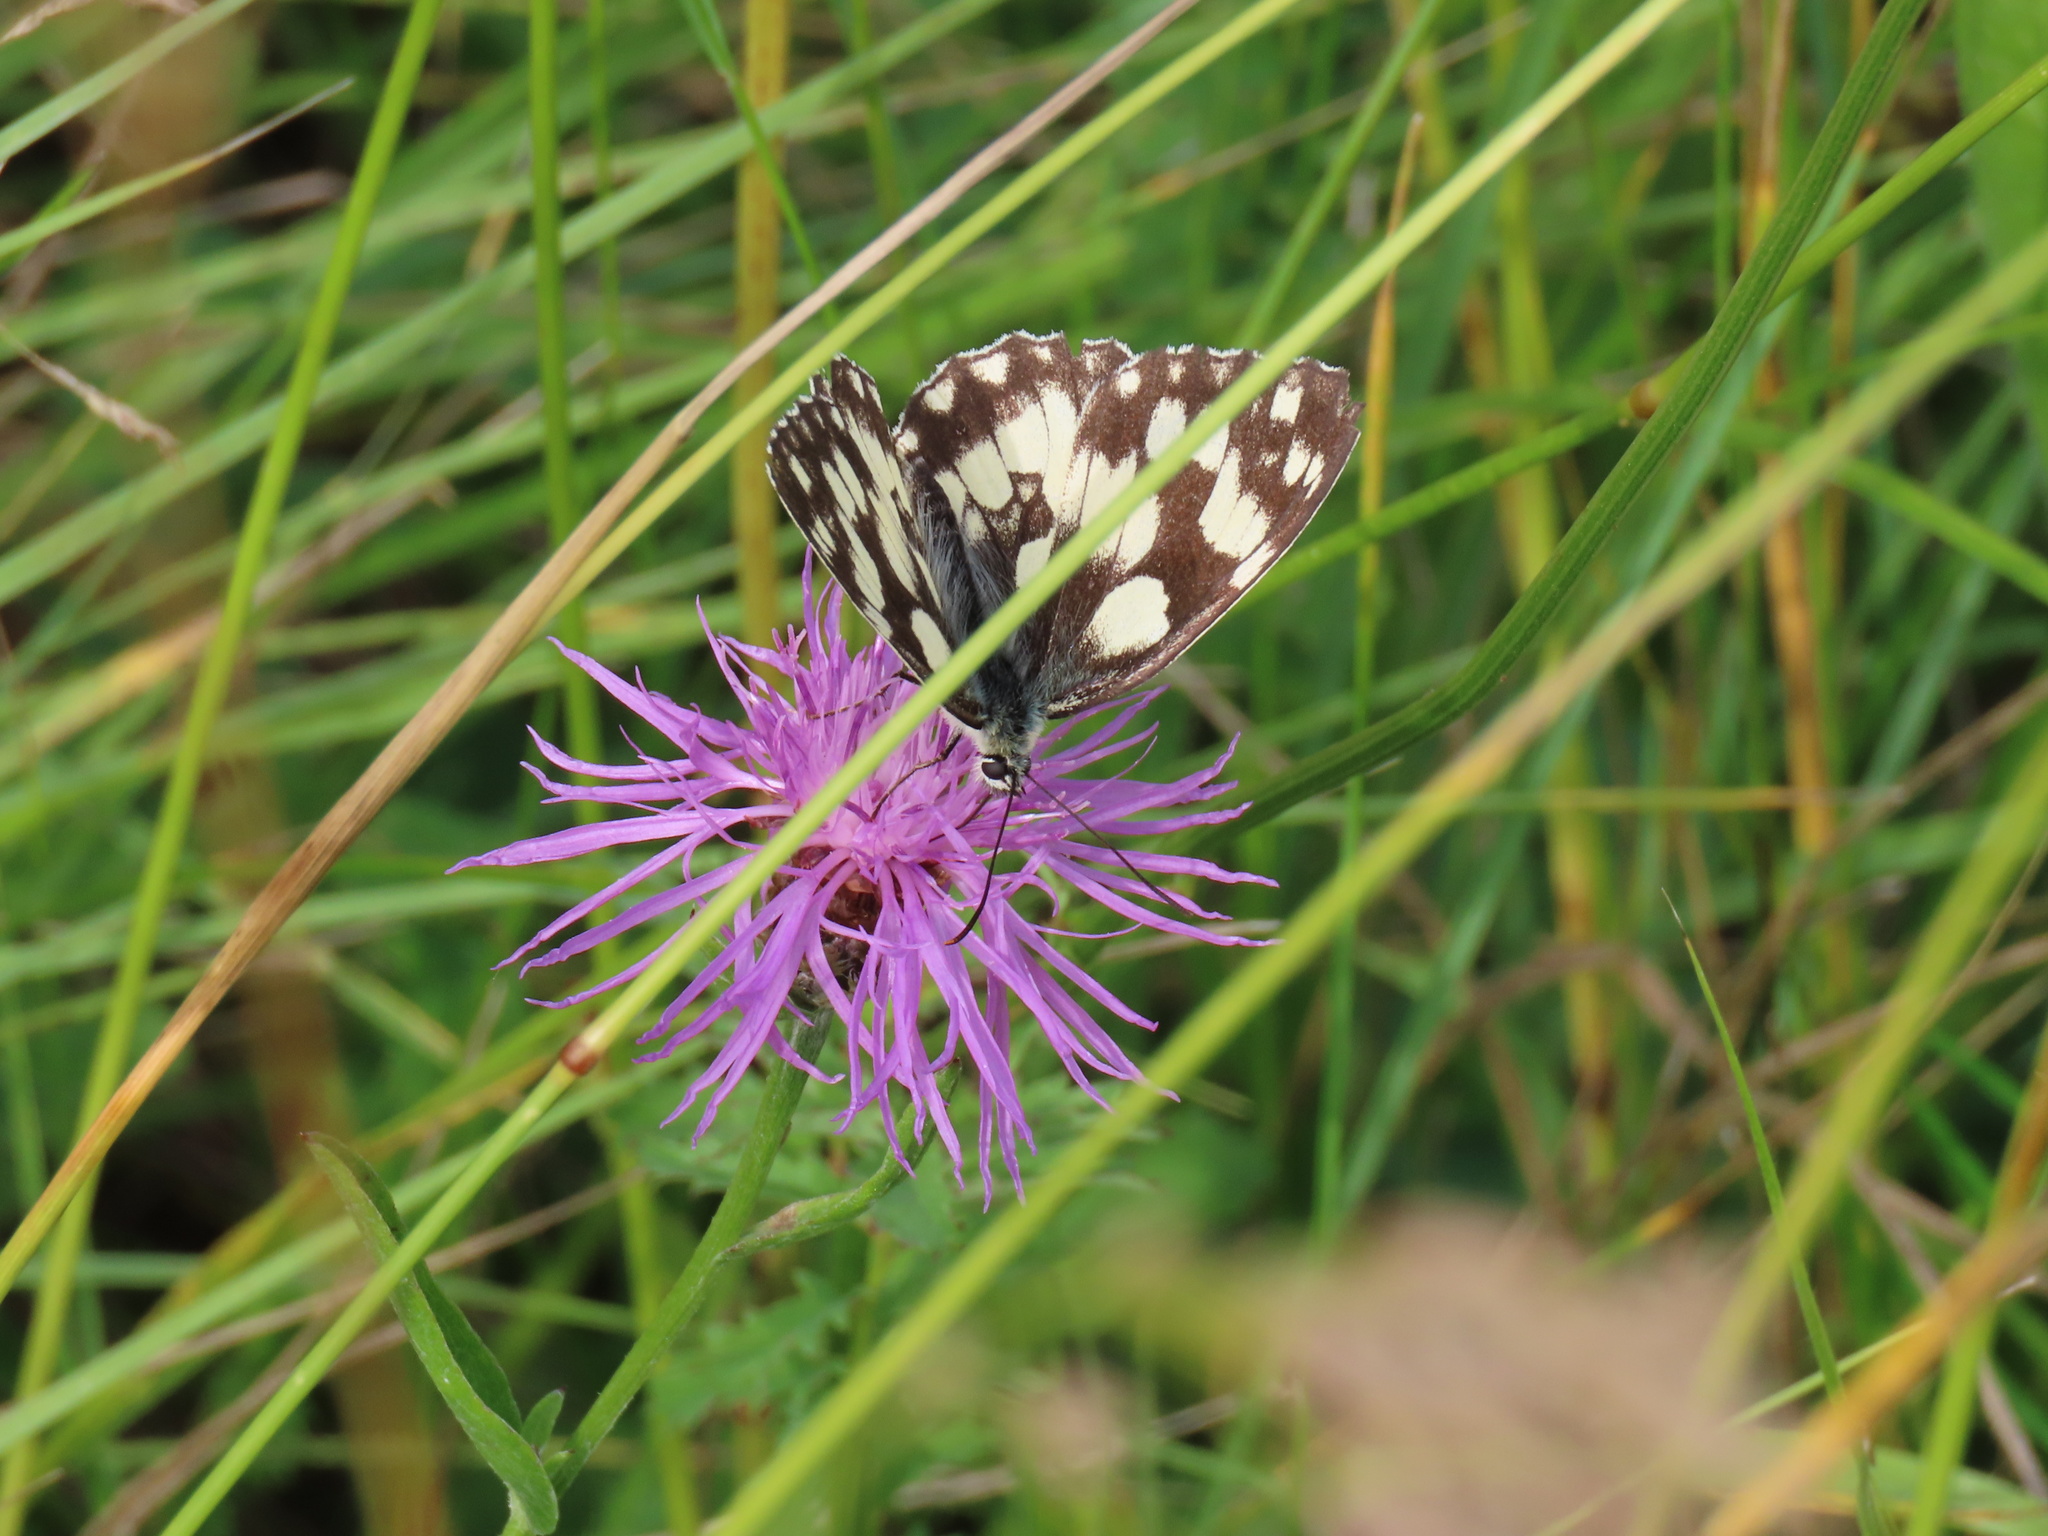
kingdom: Animalia
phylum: Arthropoda
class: Insecta
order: Lepidoptera
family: Nymphalidae
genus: Melanargia
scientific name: Melanargia galathea
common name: Marbled white
